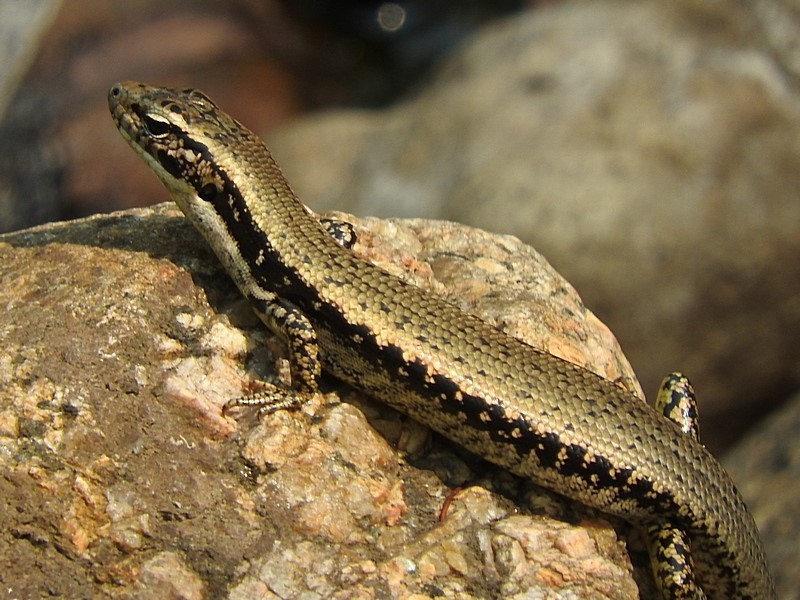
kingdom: Animalia
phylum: Chordata
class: Squamata
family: Scincidae
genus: Eulamprus
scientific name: Eulamprus heatwolei
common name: Warm-temperate water-skink
